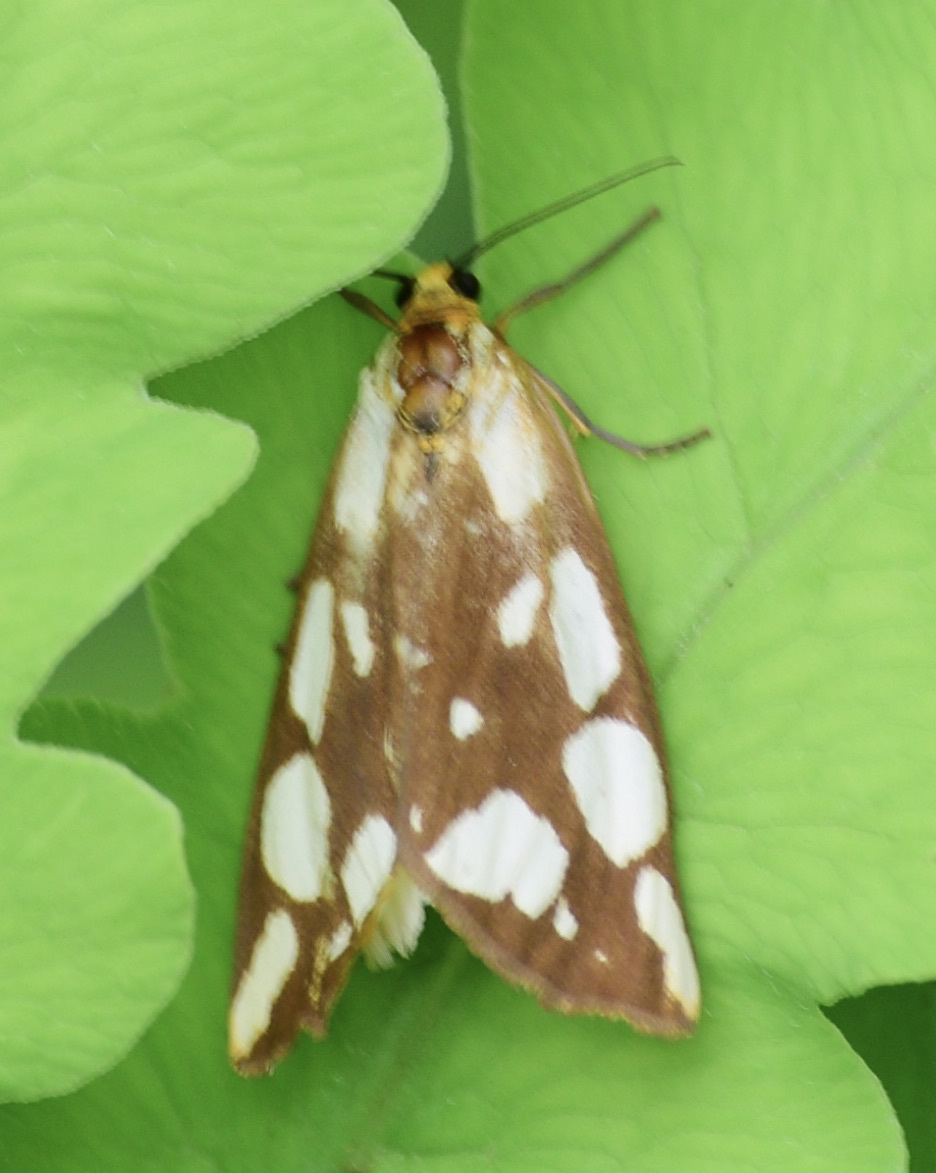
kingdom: Animalia
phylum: Arthropoda
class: Insecta
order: Lepidoptera
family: Erebidae
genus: Haploa
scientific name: Haploa confusa
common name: Confused haploa moth
